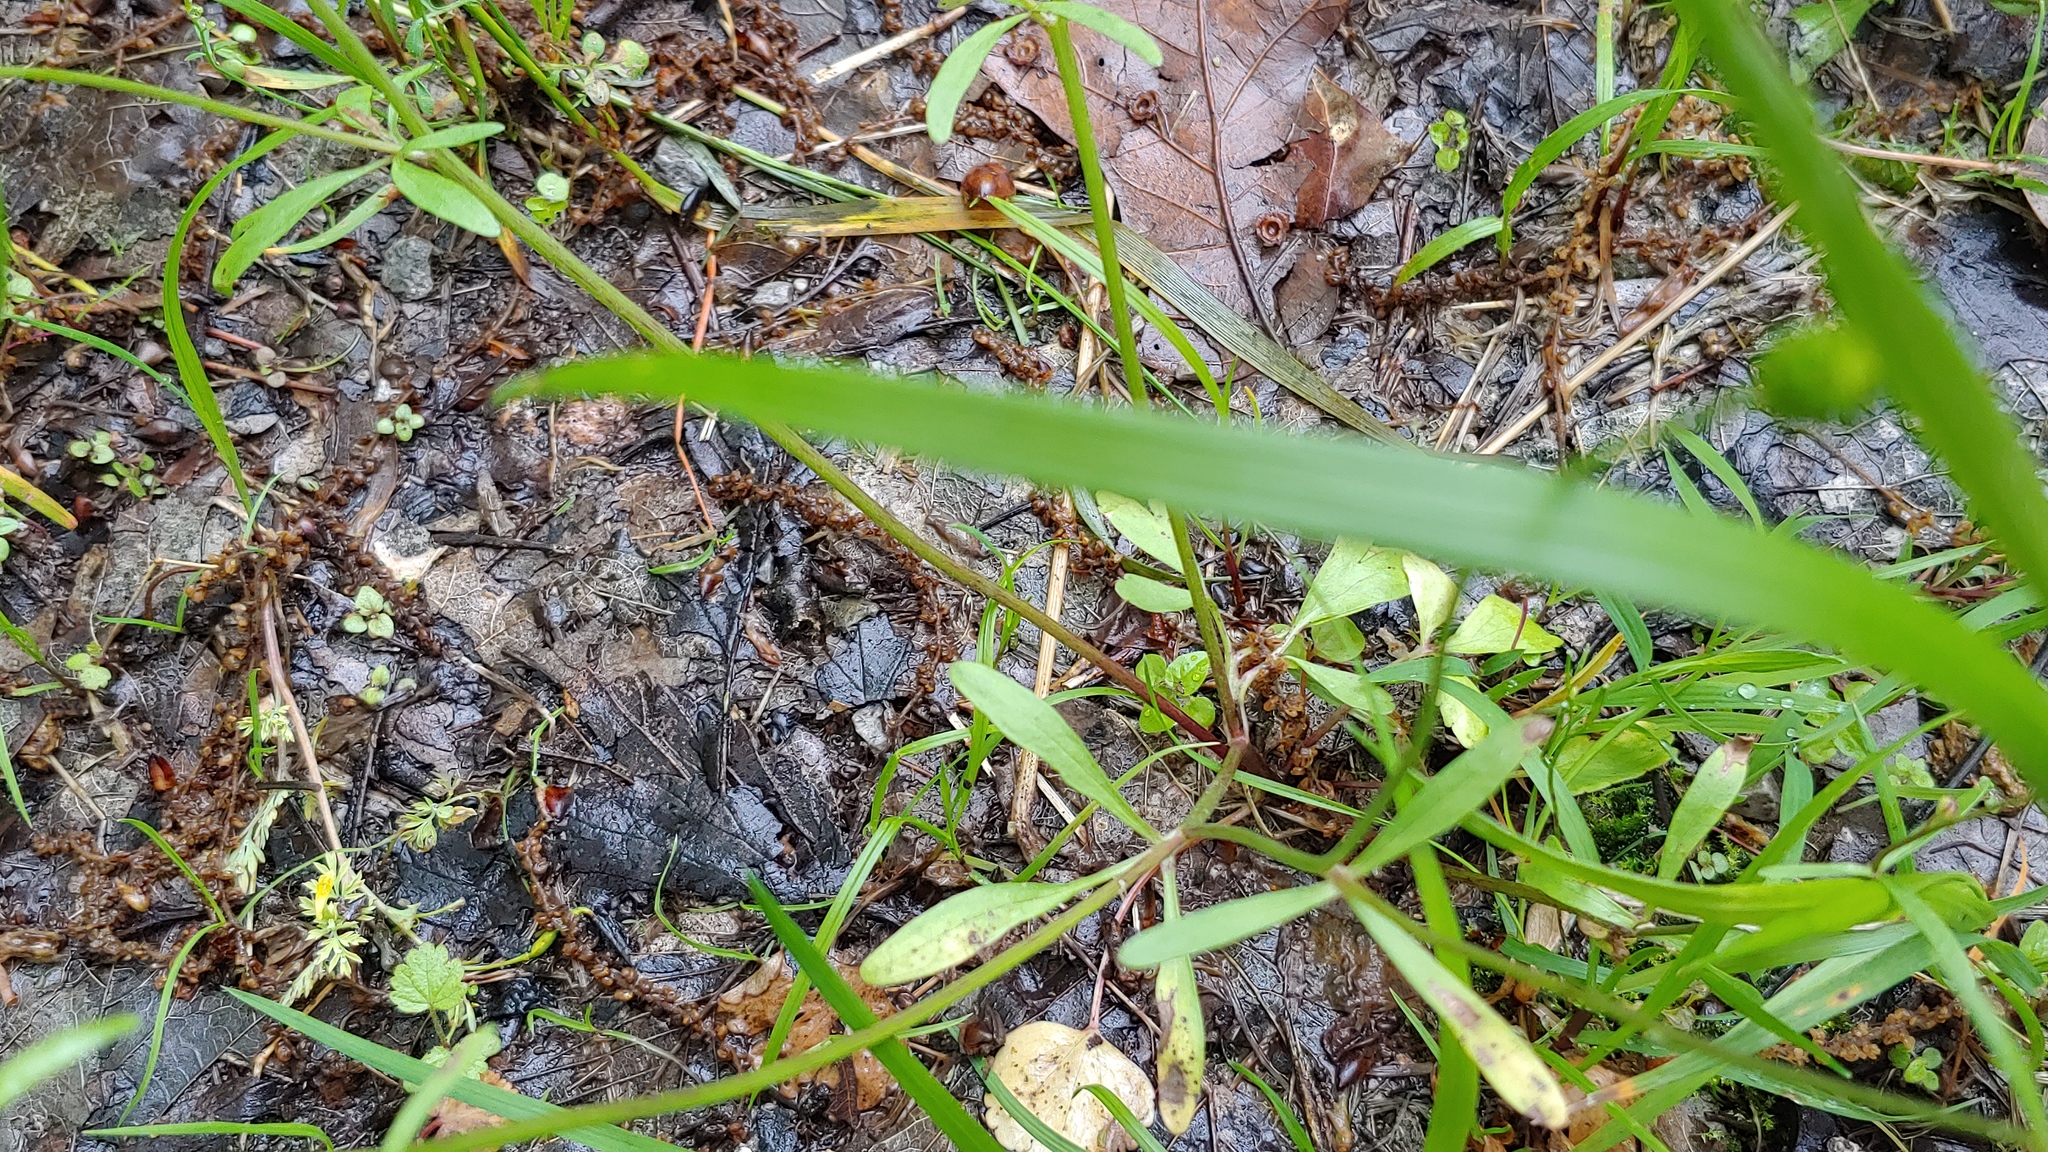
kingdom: Plantae
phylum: Tracheophyta
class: Magnoliopsida
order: Ranunculales
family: Ranunculaceae
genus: Ranunculus
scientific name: Ranunculus abortivus
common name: Early wood buttercup
